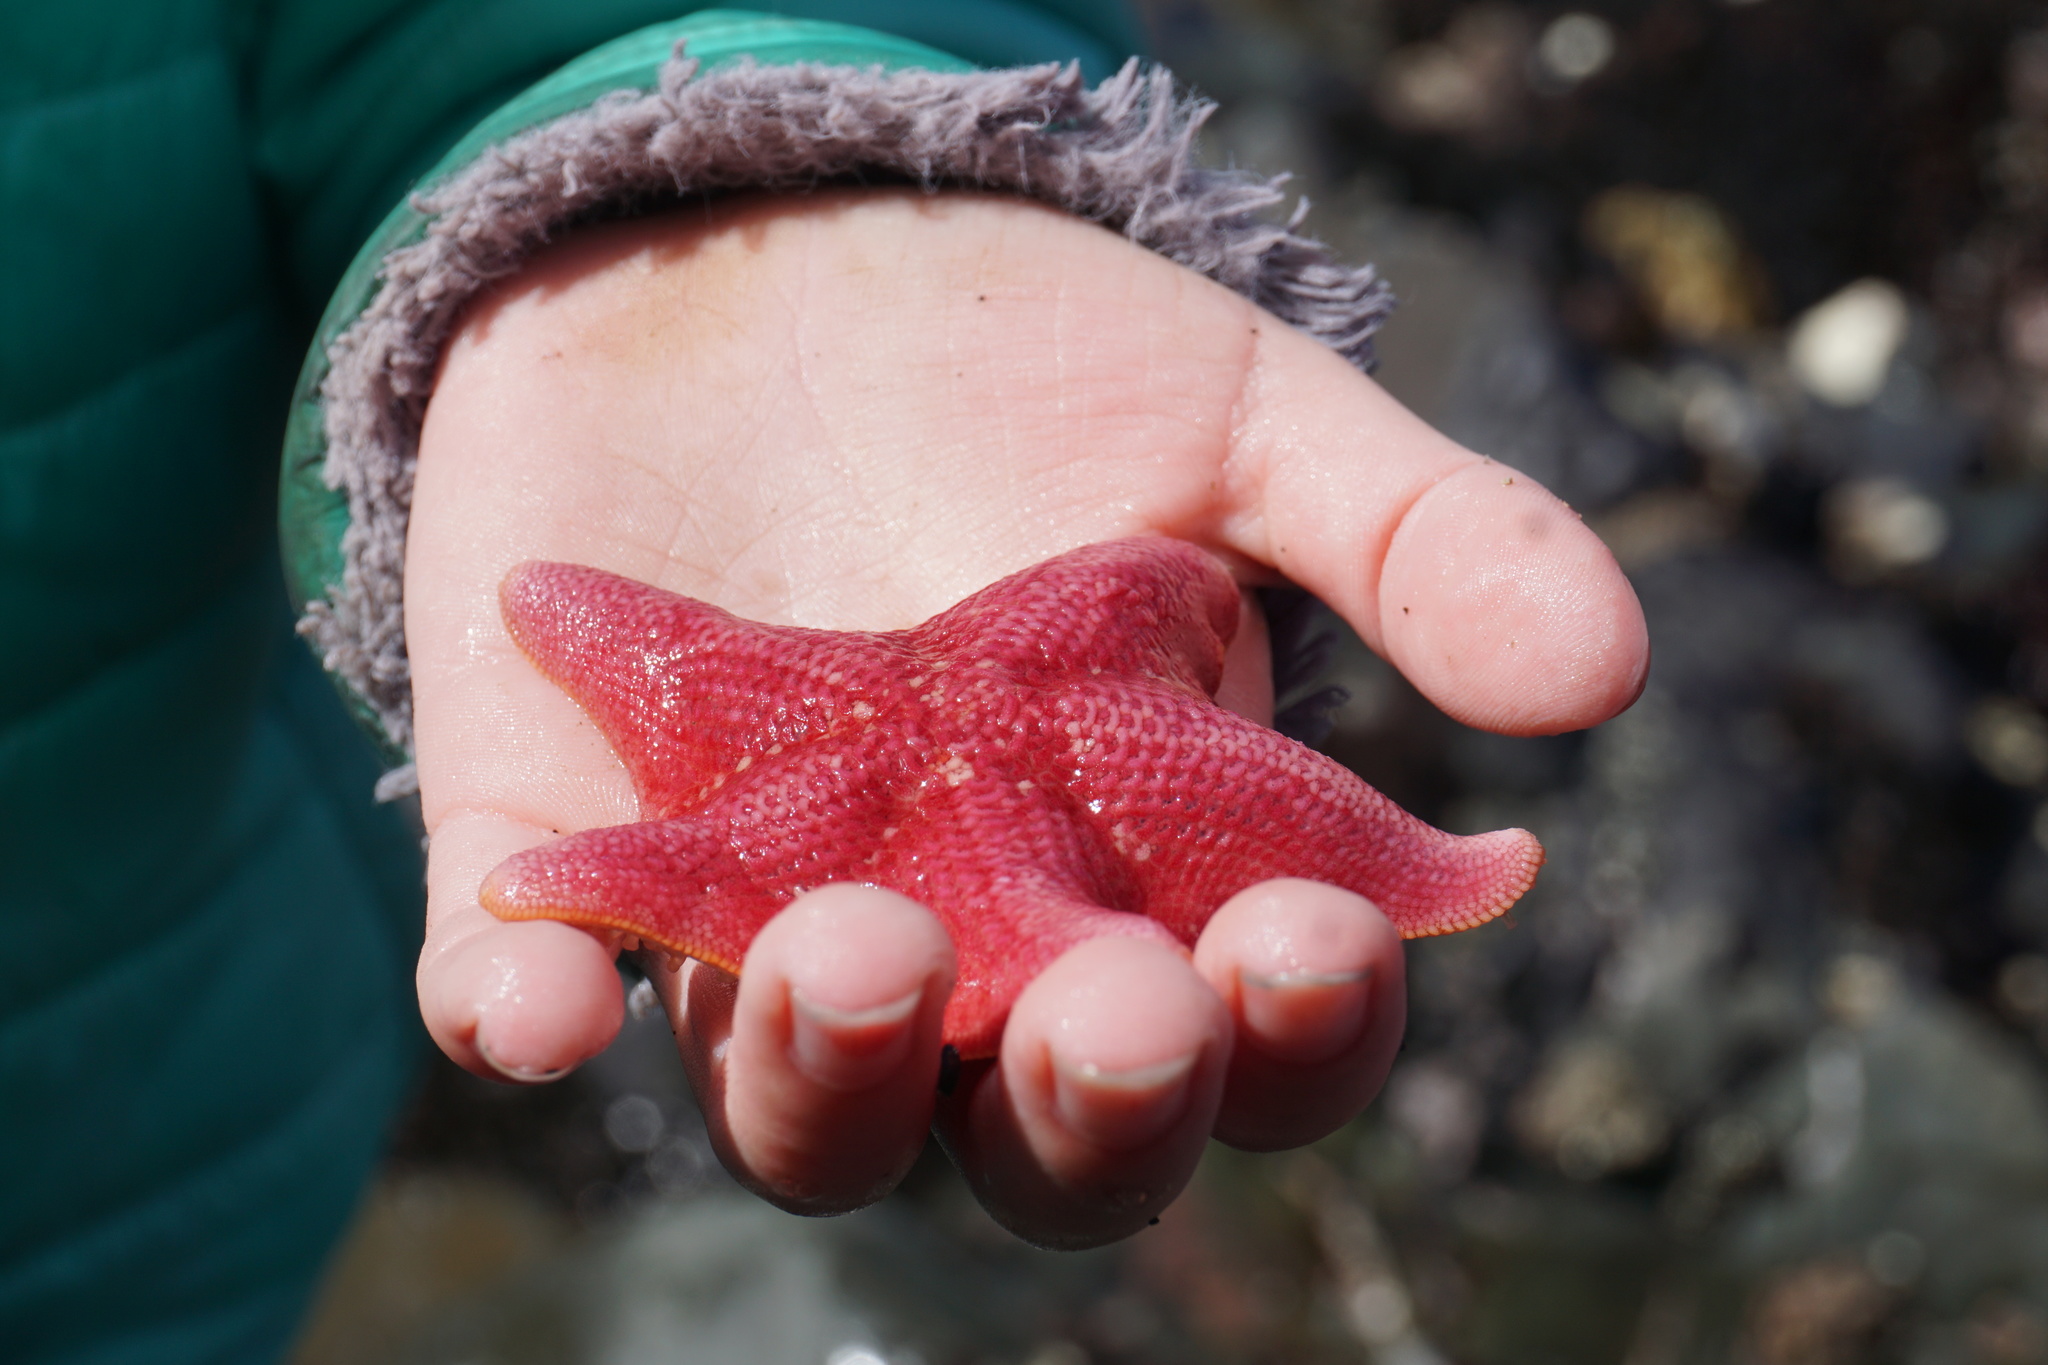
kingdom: Animalia
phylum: Echinodermata
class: Asteroidea
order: Valvatida
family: Asterinidae
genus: Patiria
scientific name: Patiria miniata
